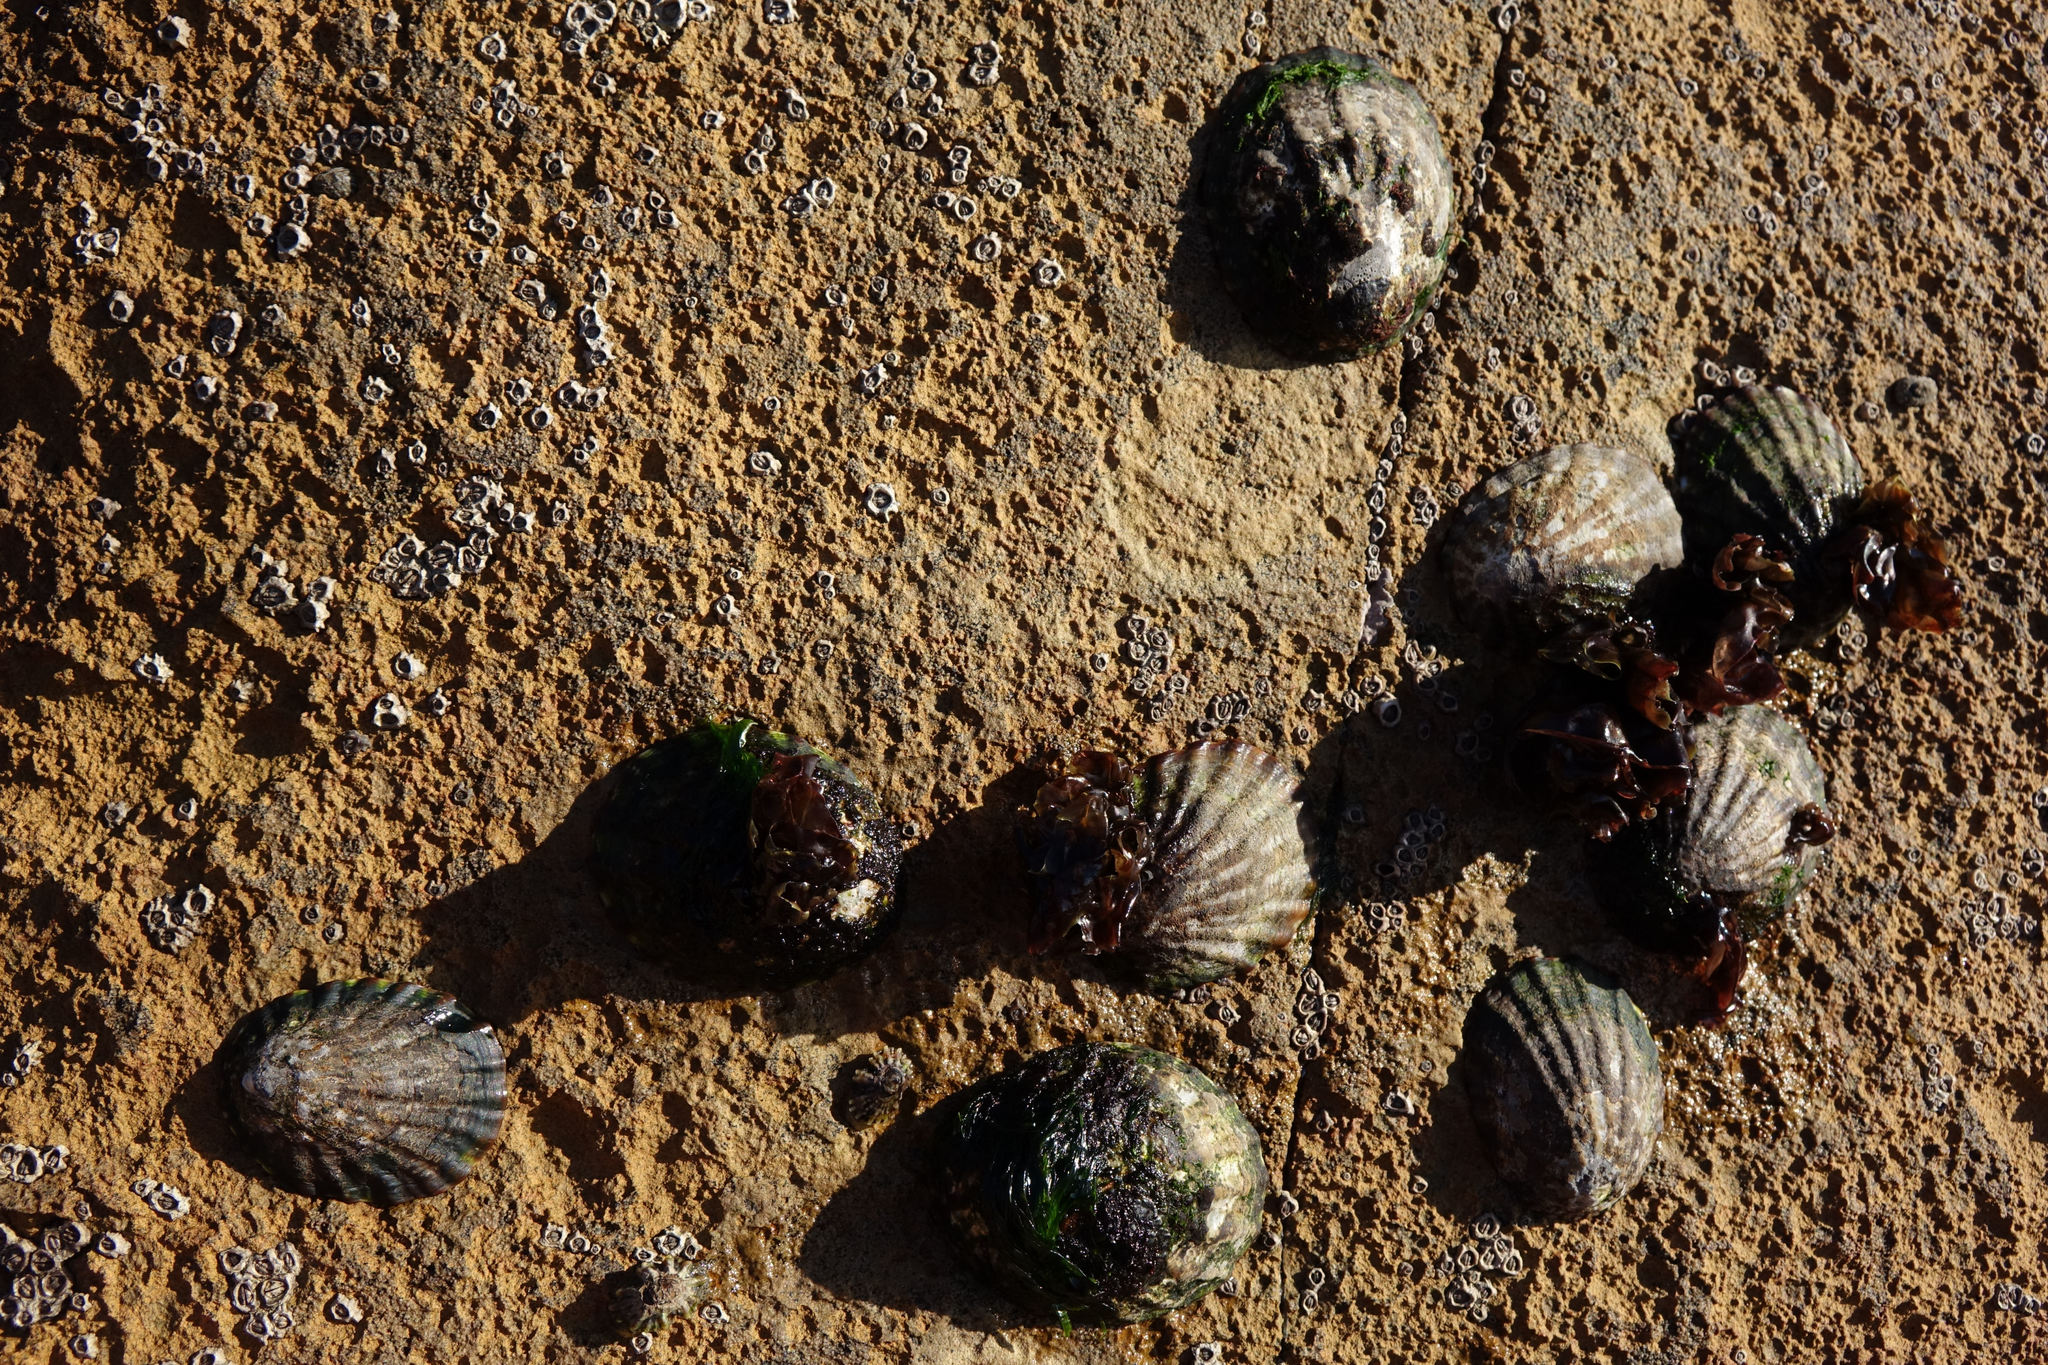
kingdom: Animalia
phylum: Mollusca
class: Gastropoda
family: Nacellidae
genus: Cellana
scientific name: Cellana strigilis
